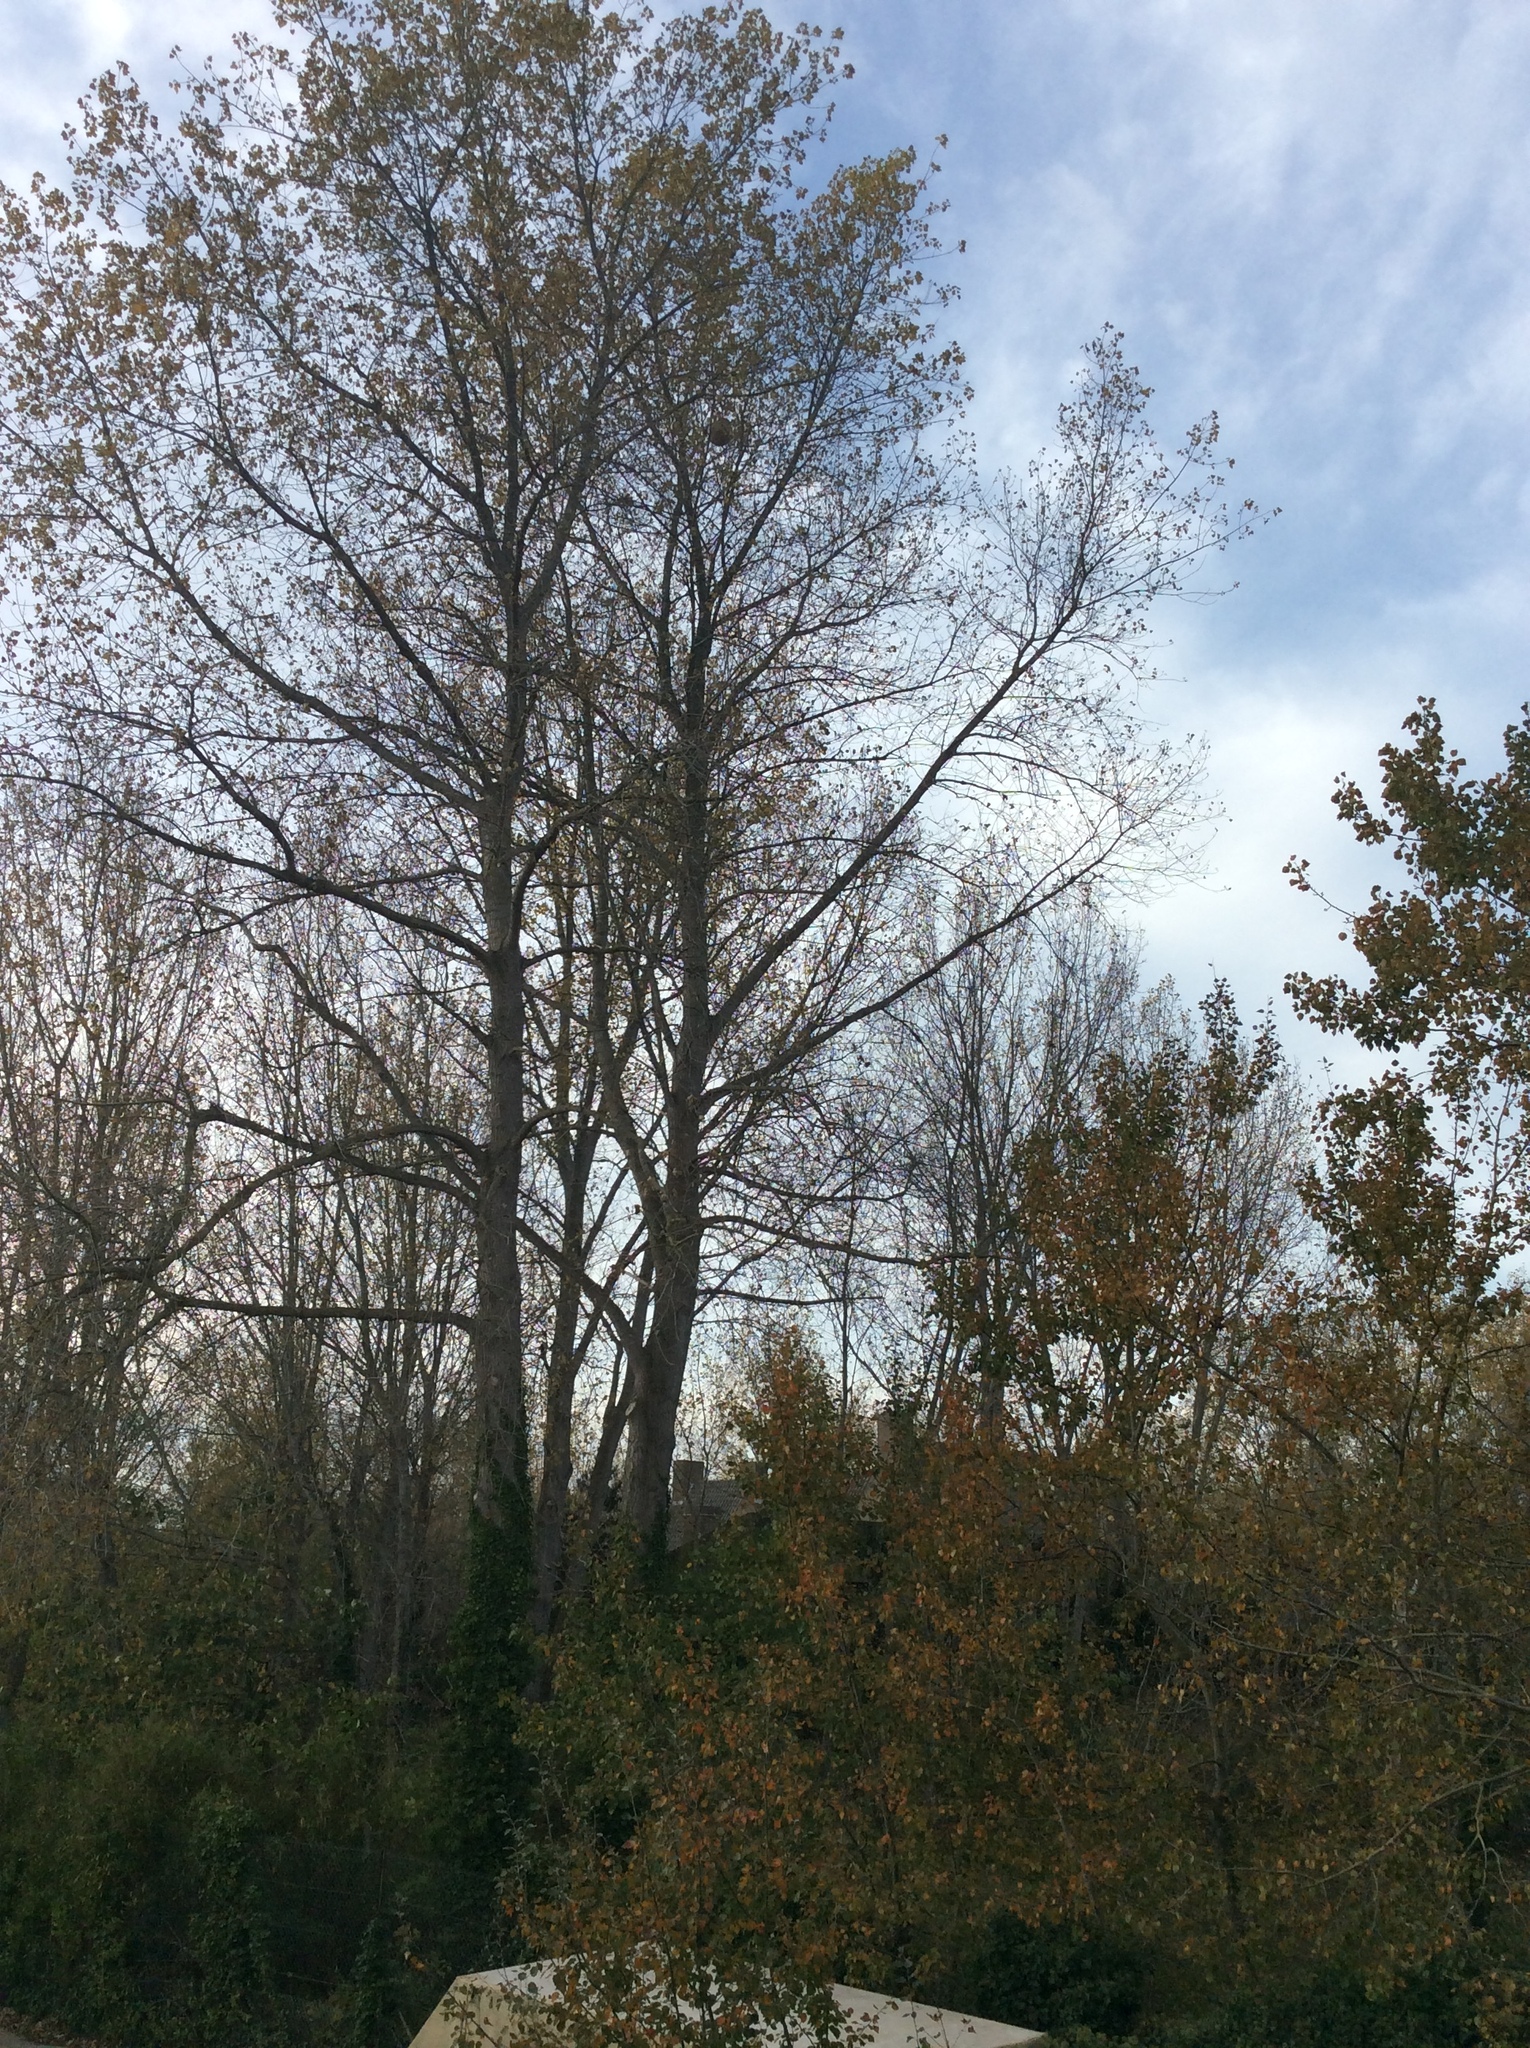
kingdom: Animalia
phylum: Arthropoda
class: Insecta
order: Hymenoptera
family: Vespidae
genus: Vespa
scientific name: Vespa velutina
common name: Asian hornet
